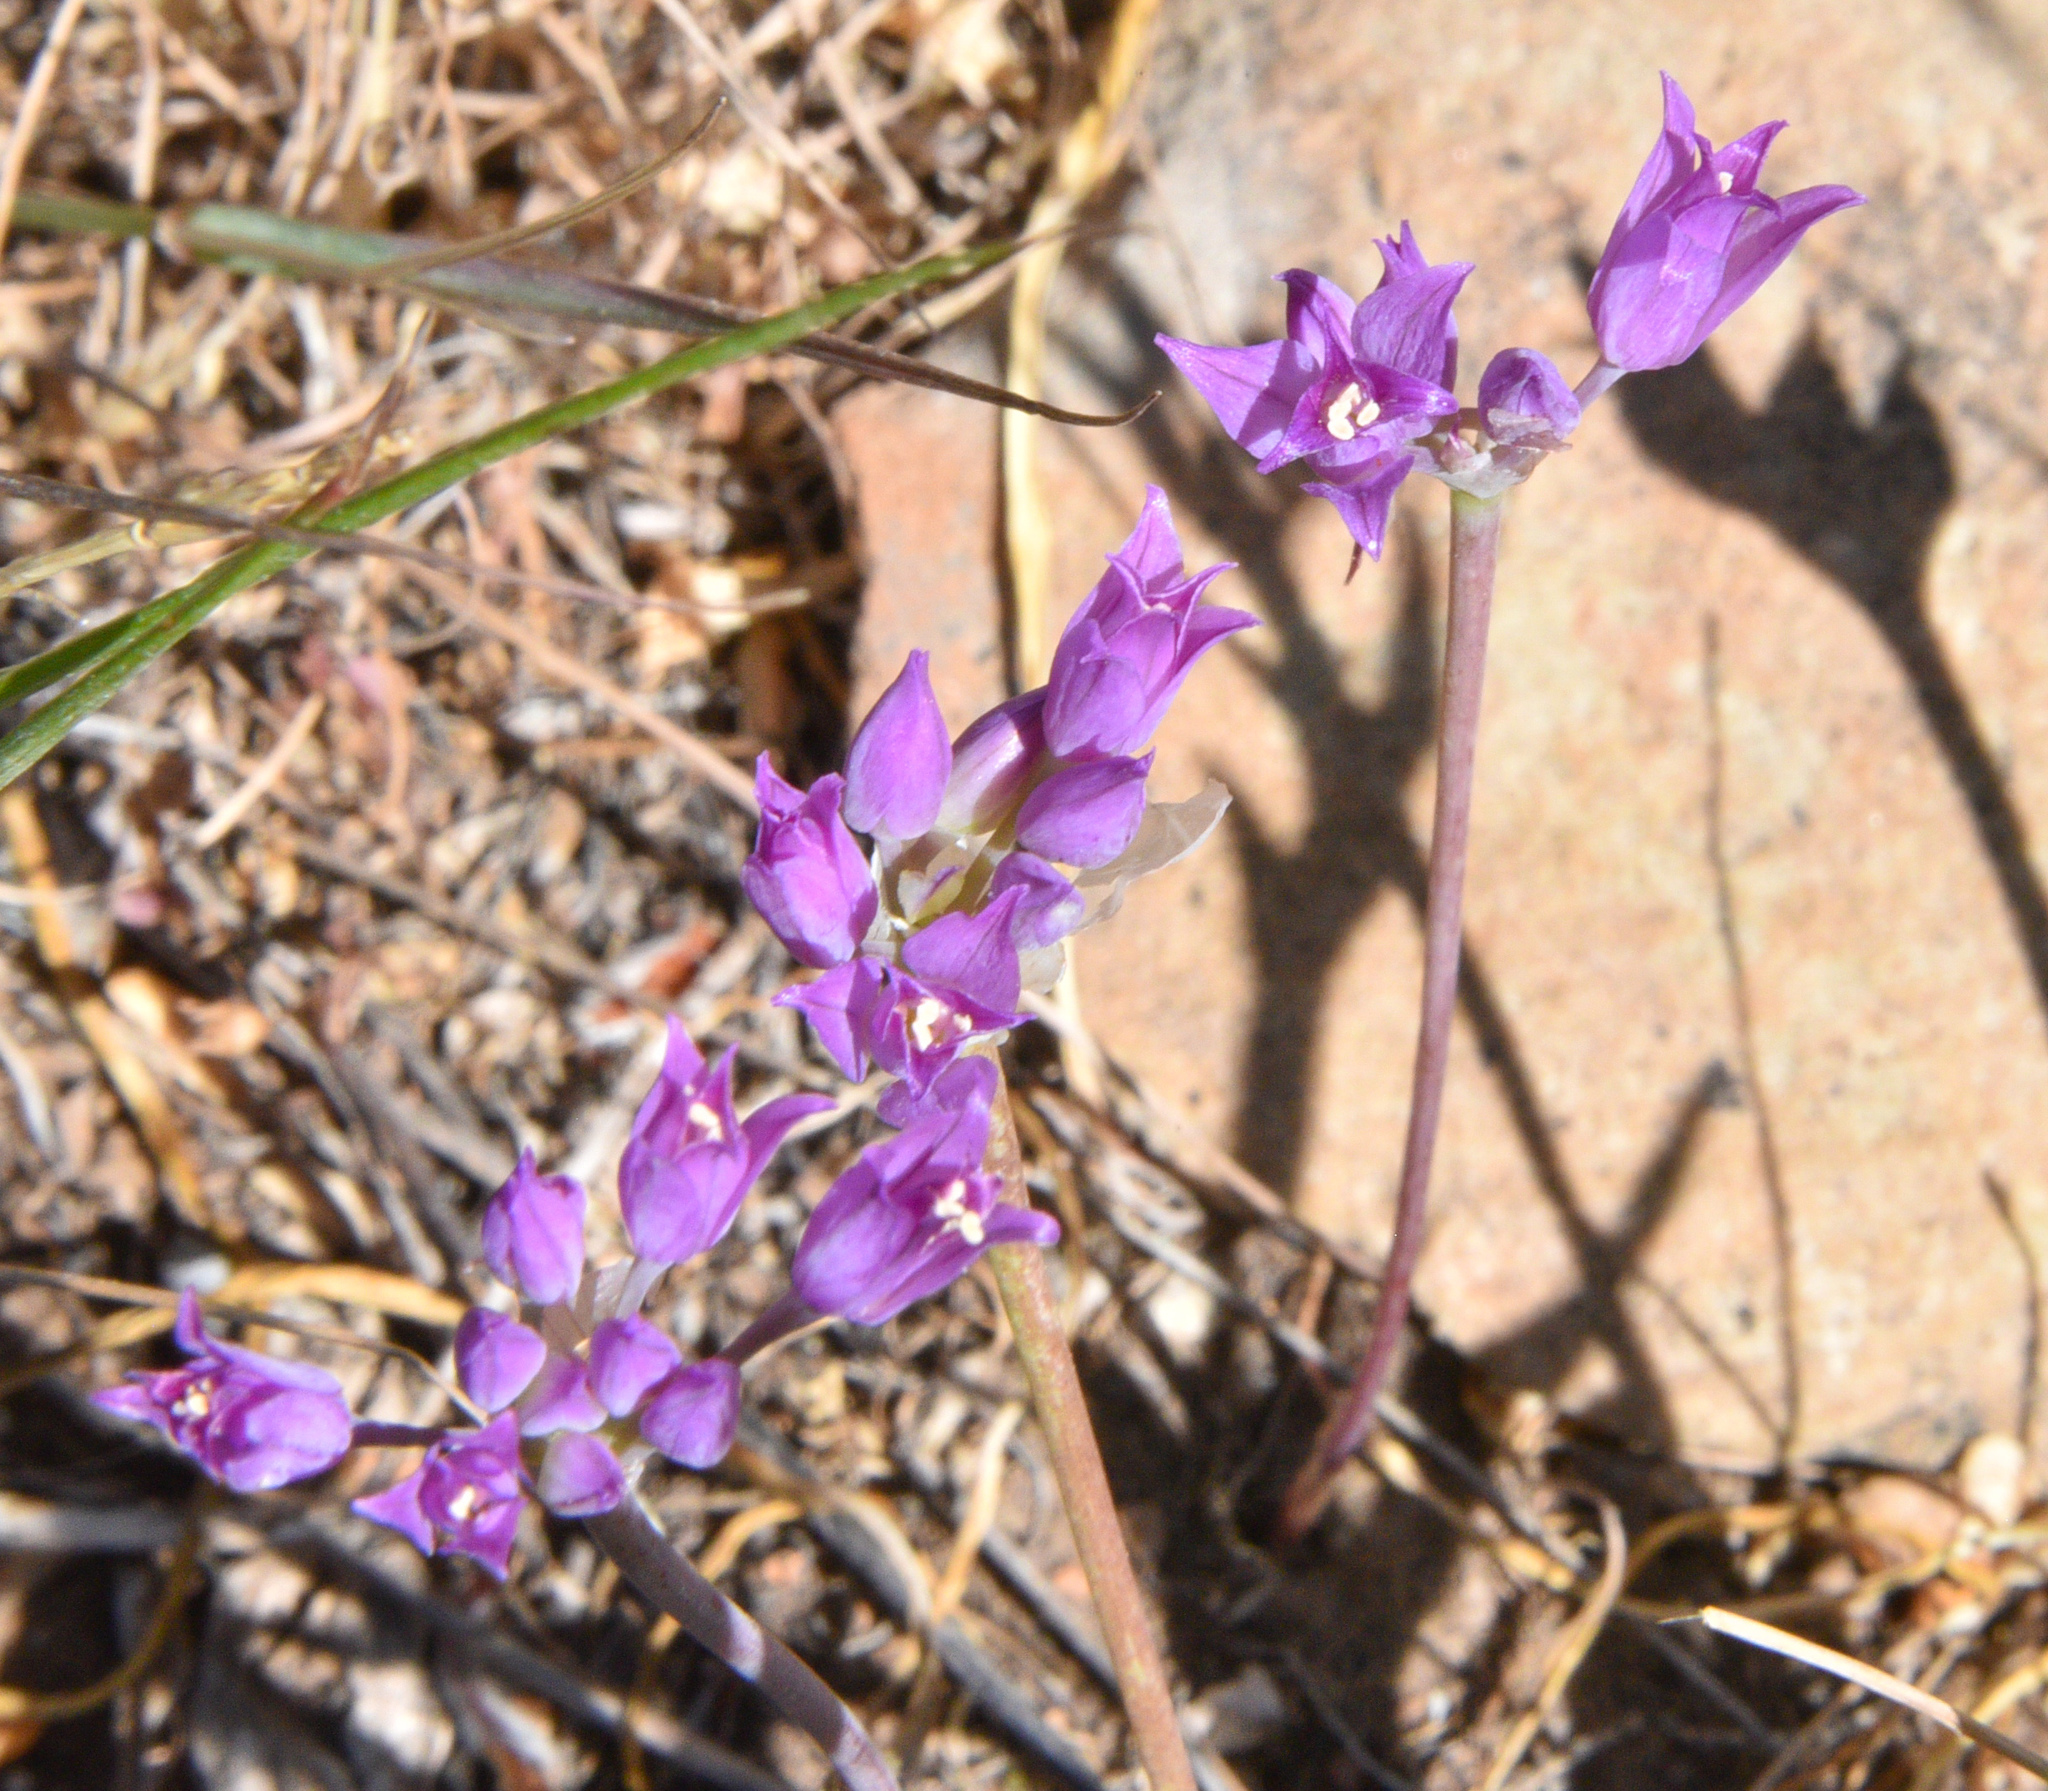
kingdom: Plantae
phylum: Tracheophyta
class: Liliopsida
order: Asparagales
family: Amaryllidaceae
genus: Allium
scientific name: Allium acuminatum
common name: Hooker's onion
